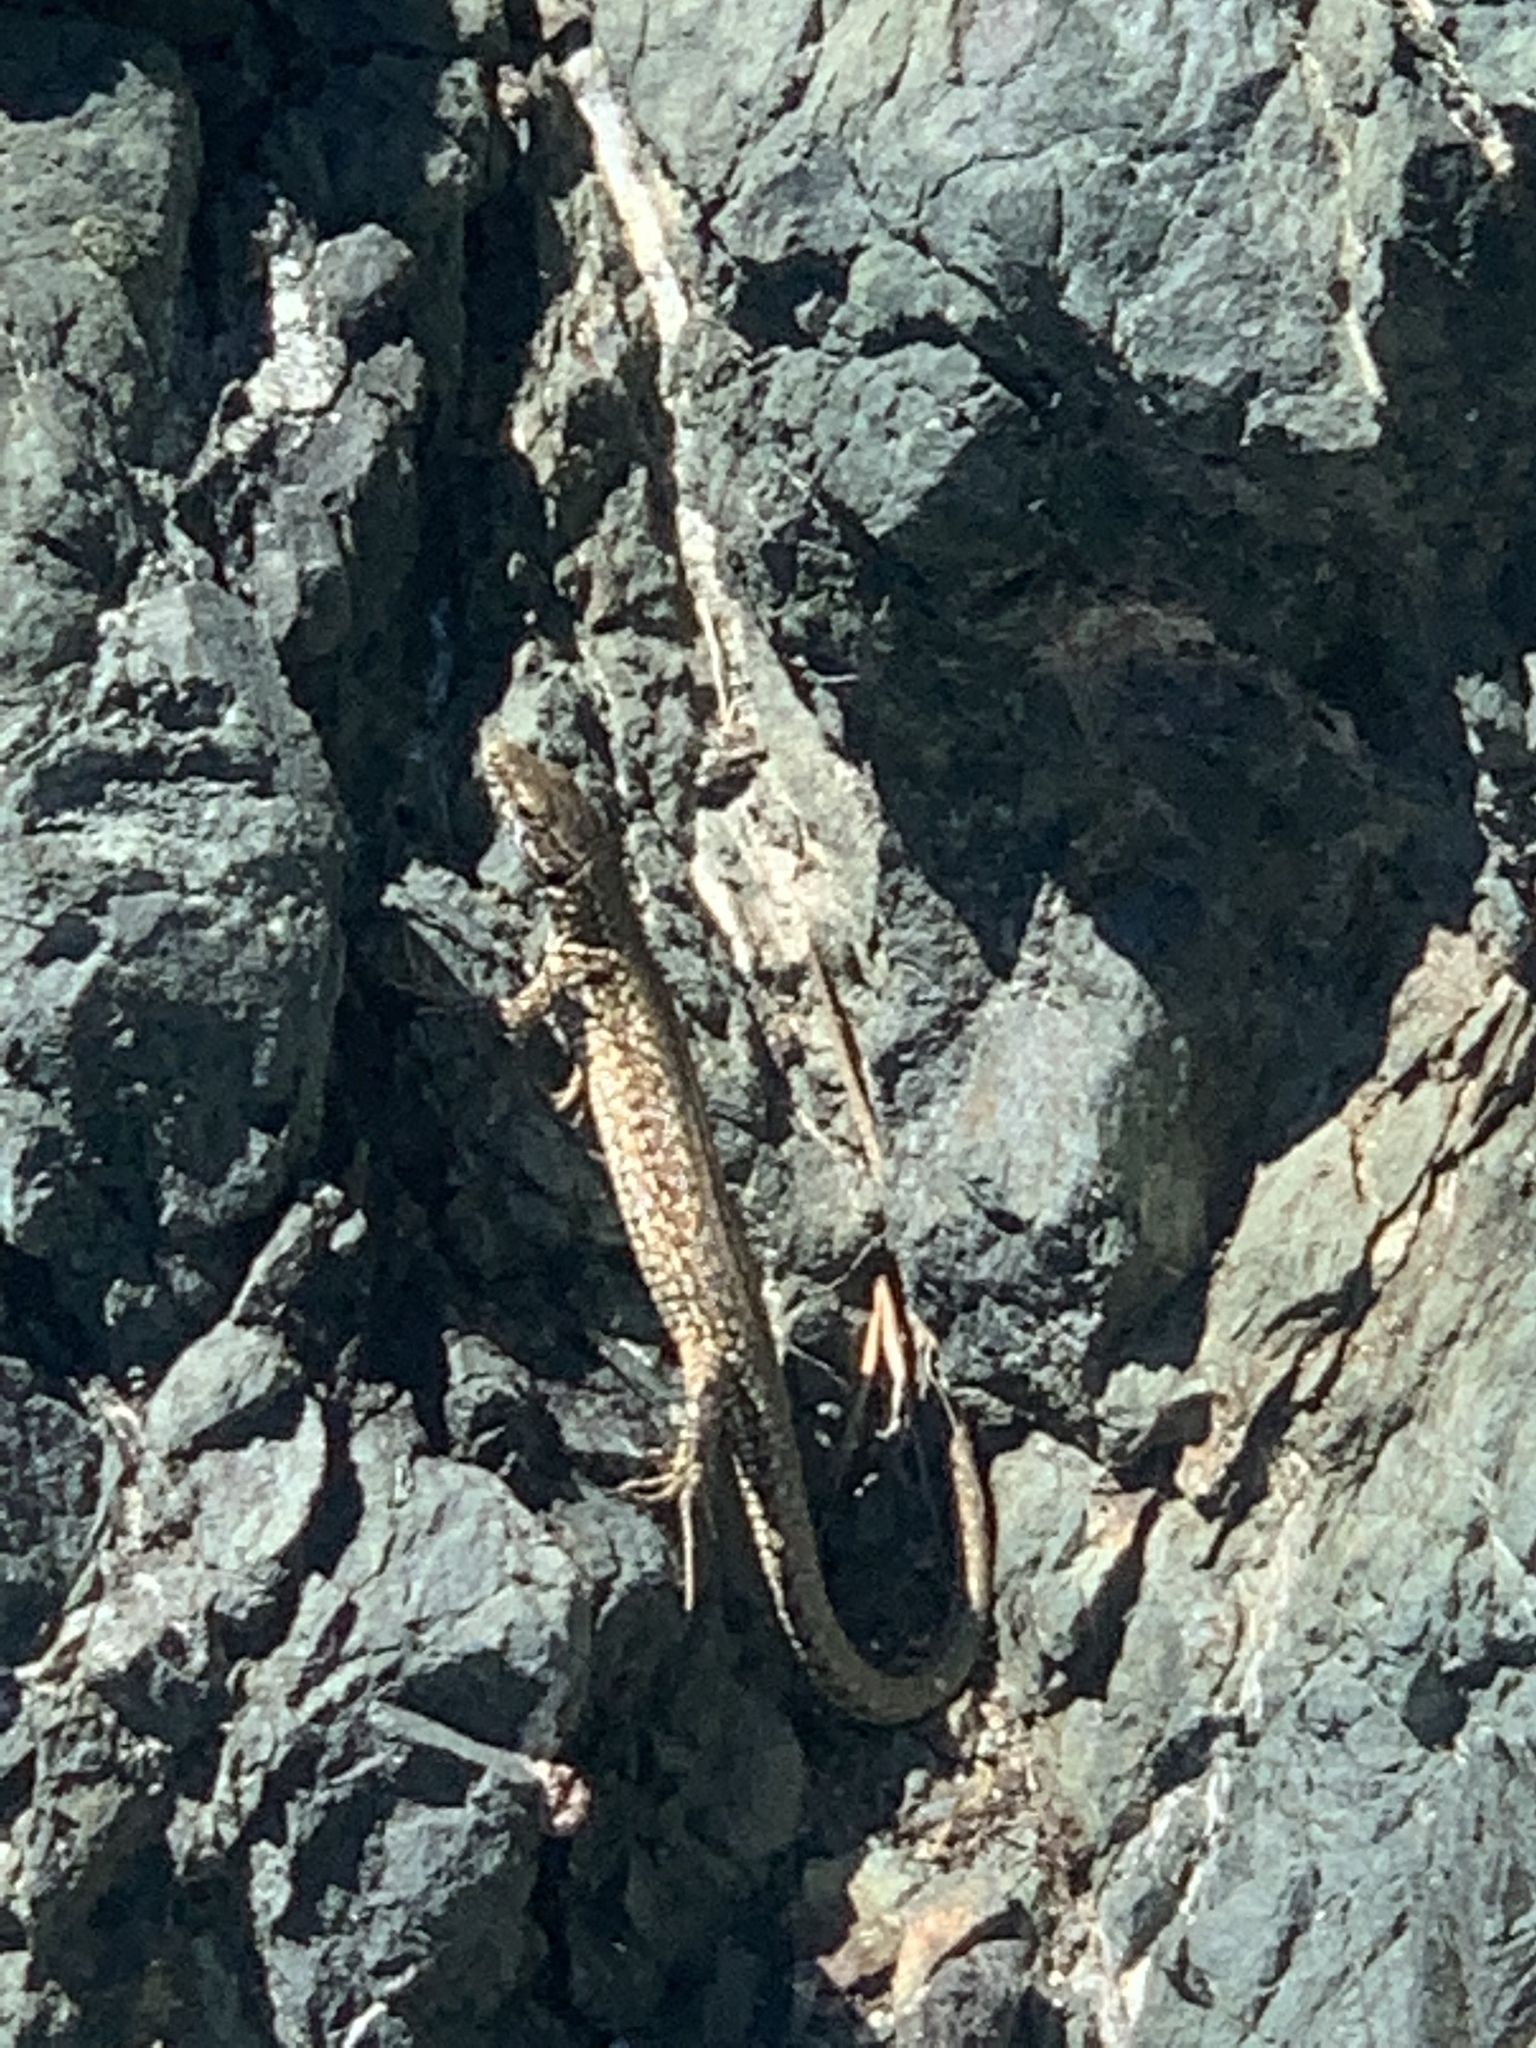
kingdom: Animalia
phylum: Chordata
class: Squamata
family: Lacertidae
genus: Podarcis
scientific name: Podarcis muralis
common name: Common wall lizard
